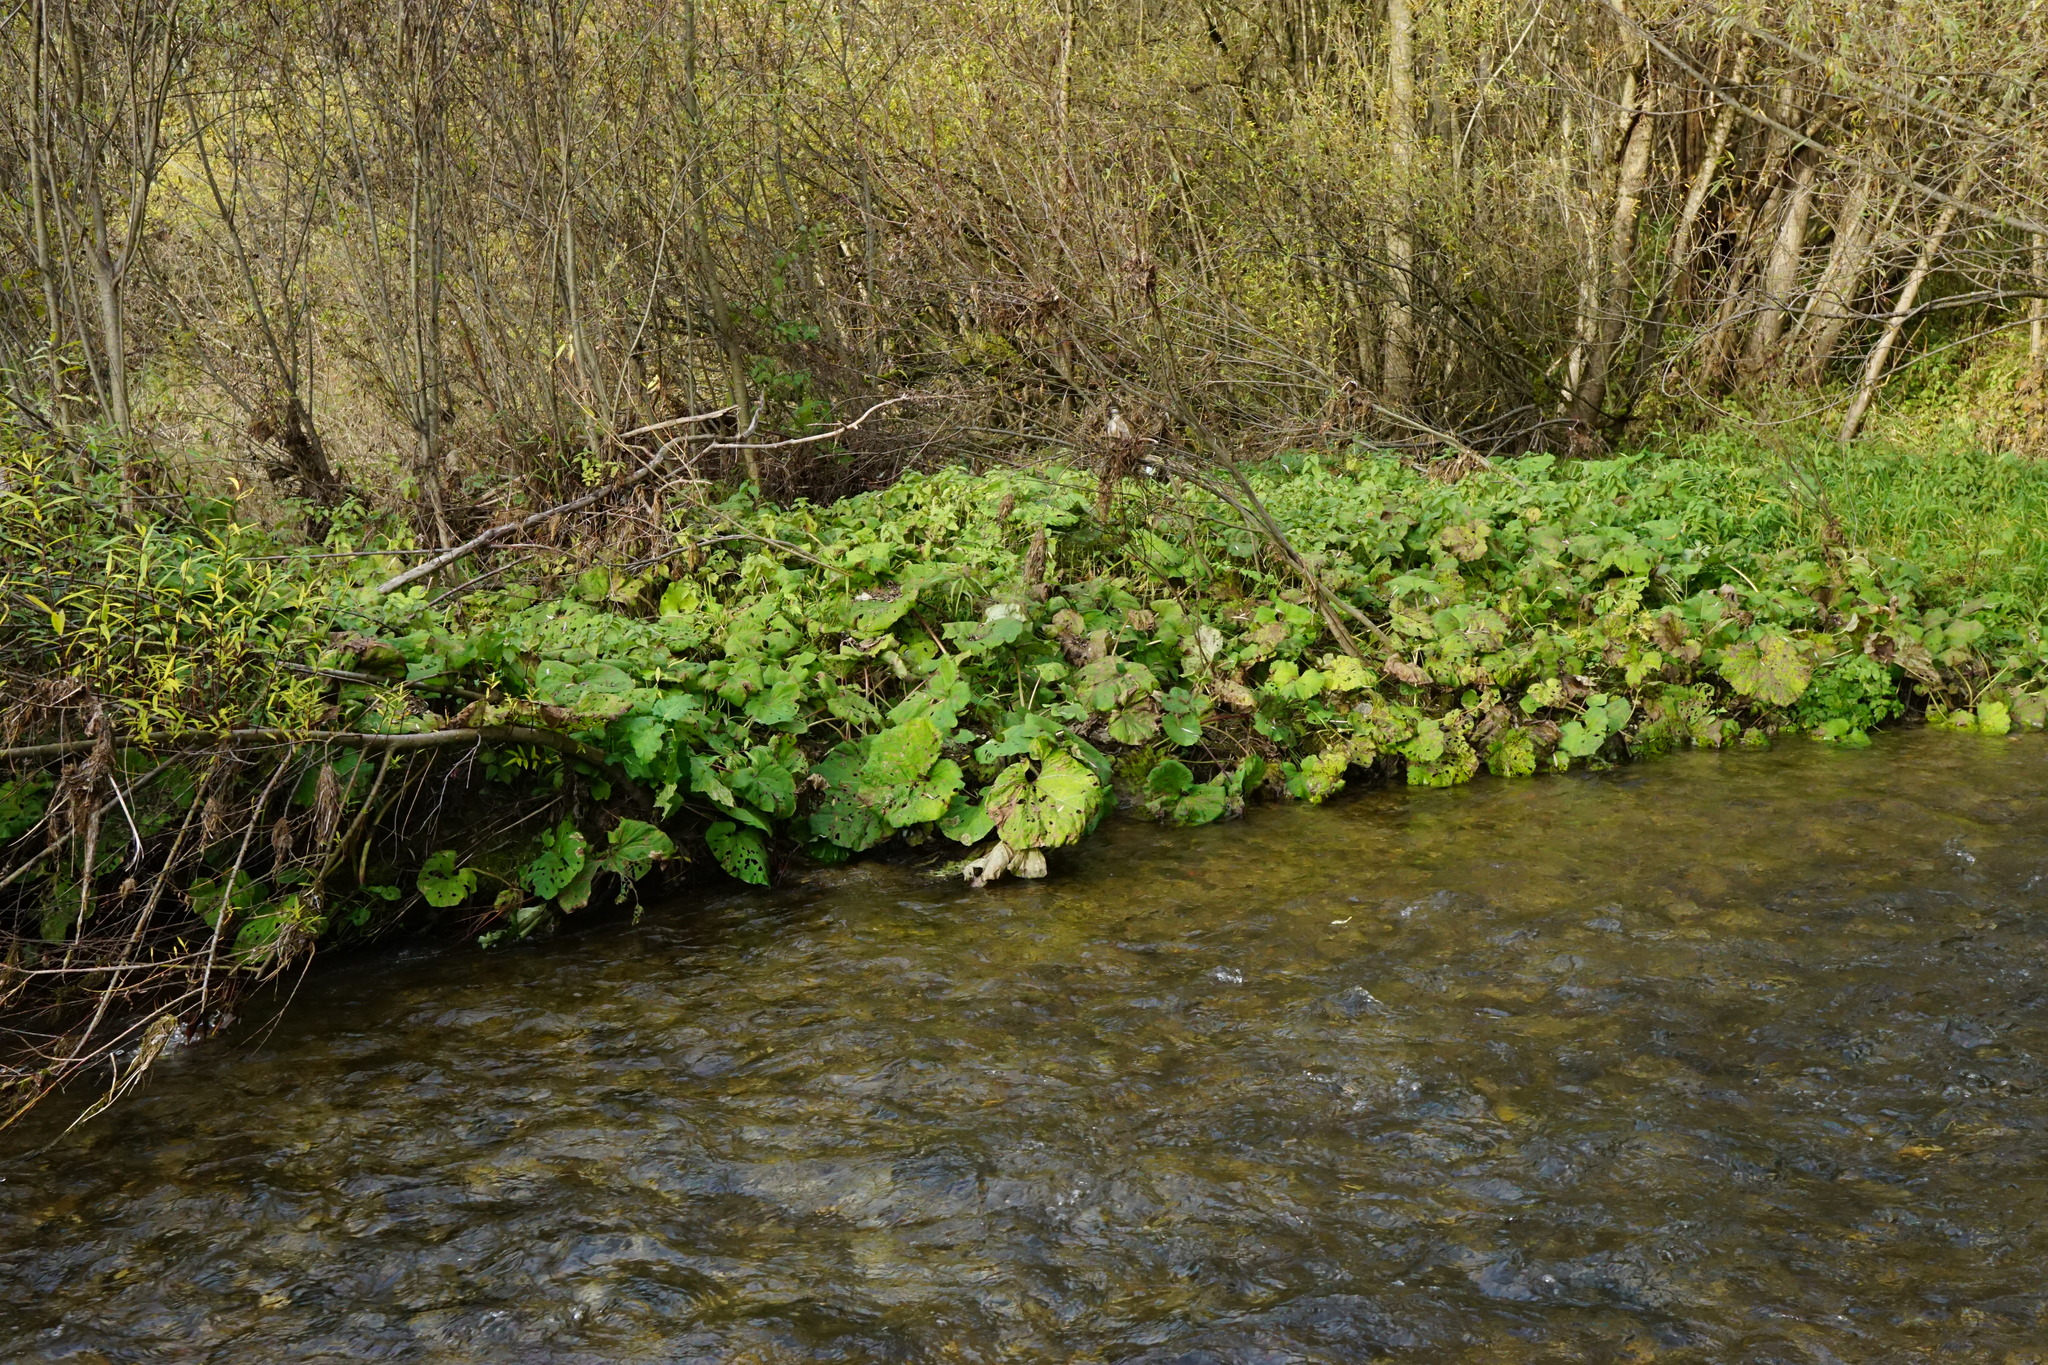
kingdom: Plantae
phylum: Tracheophyta
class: Magnoliopsida
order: Asterales
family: Asteraceae
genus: Petasites
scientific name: Petasites hybridus
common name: Butterbur
